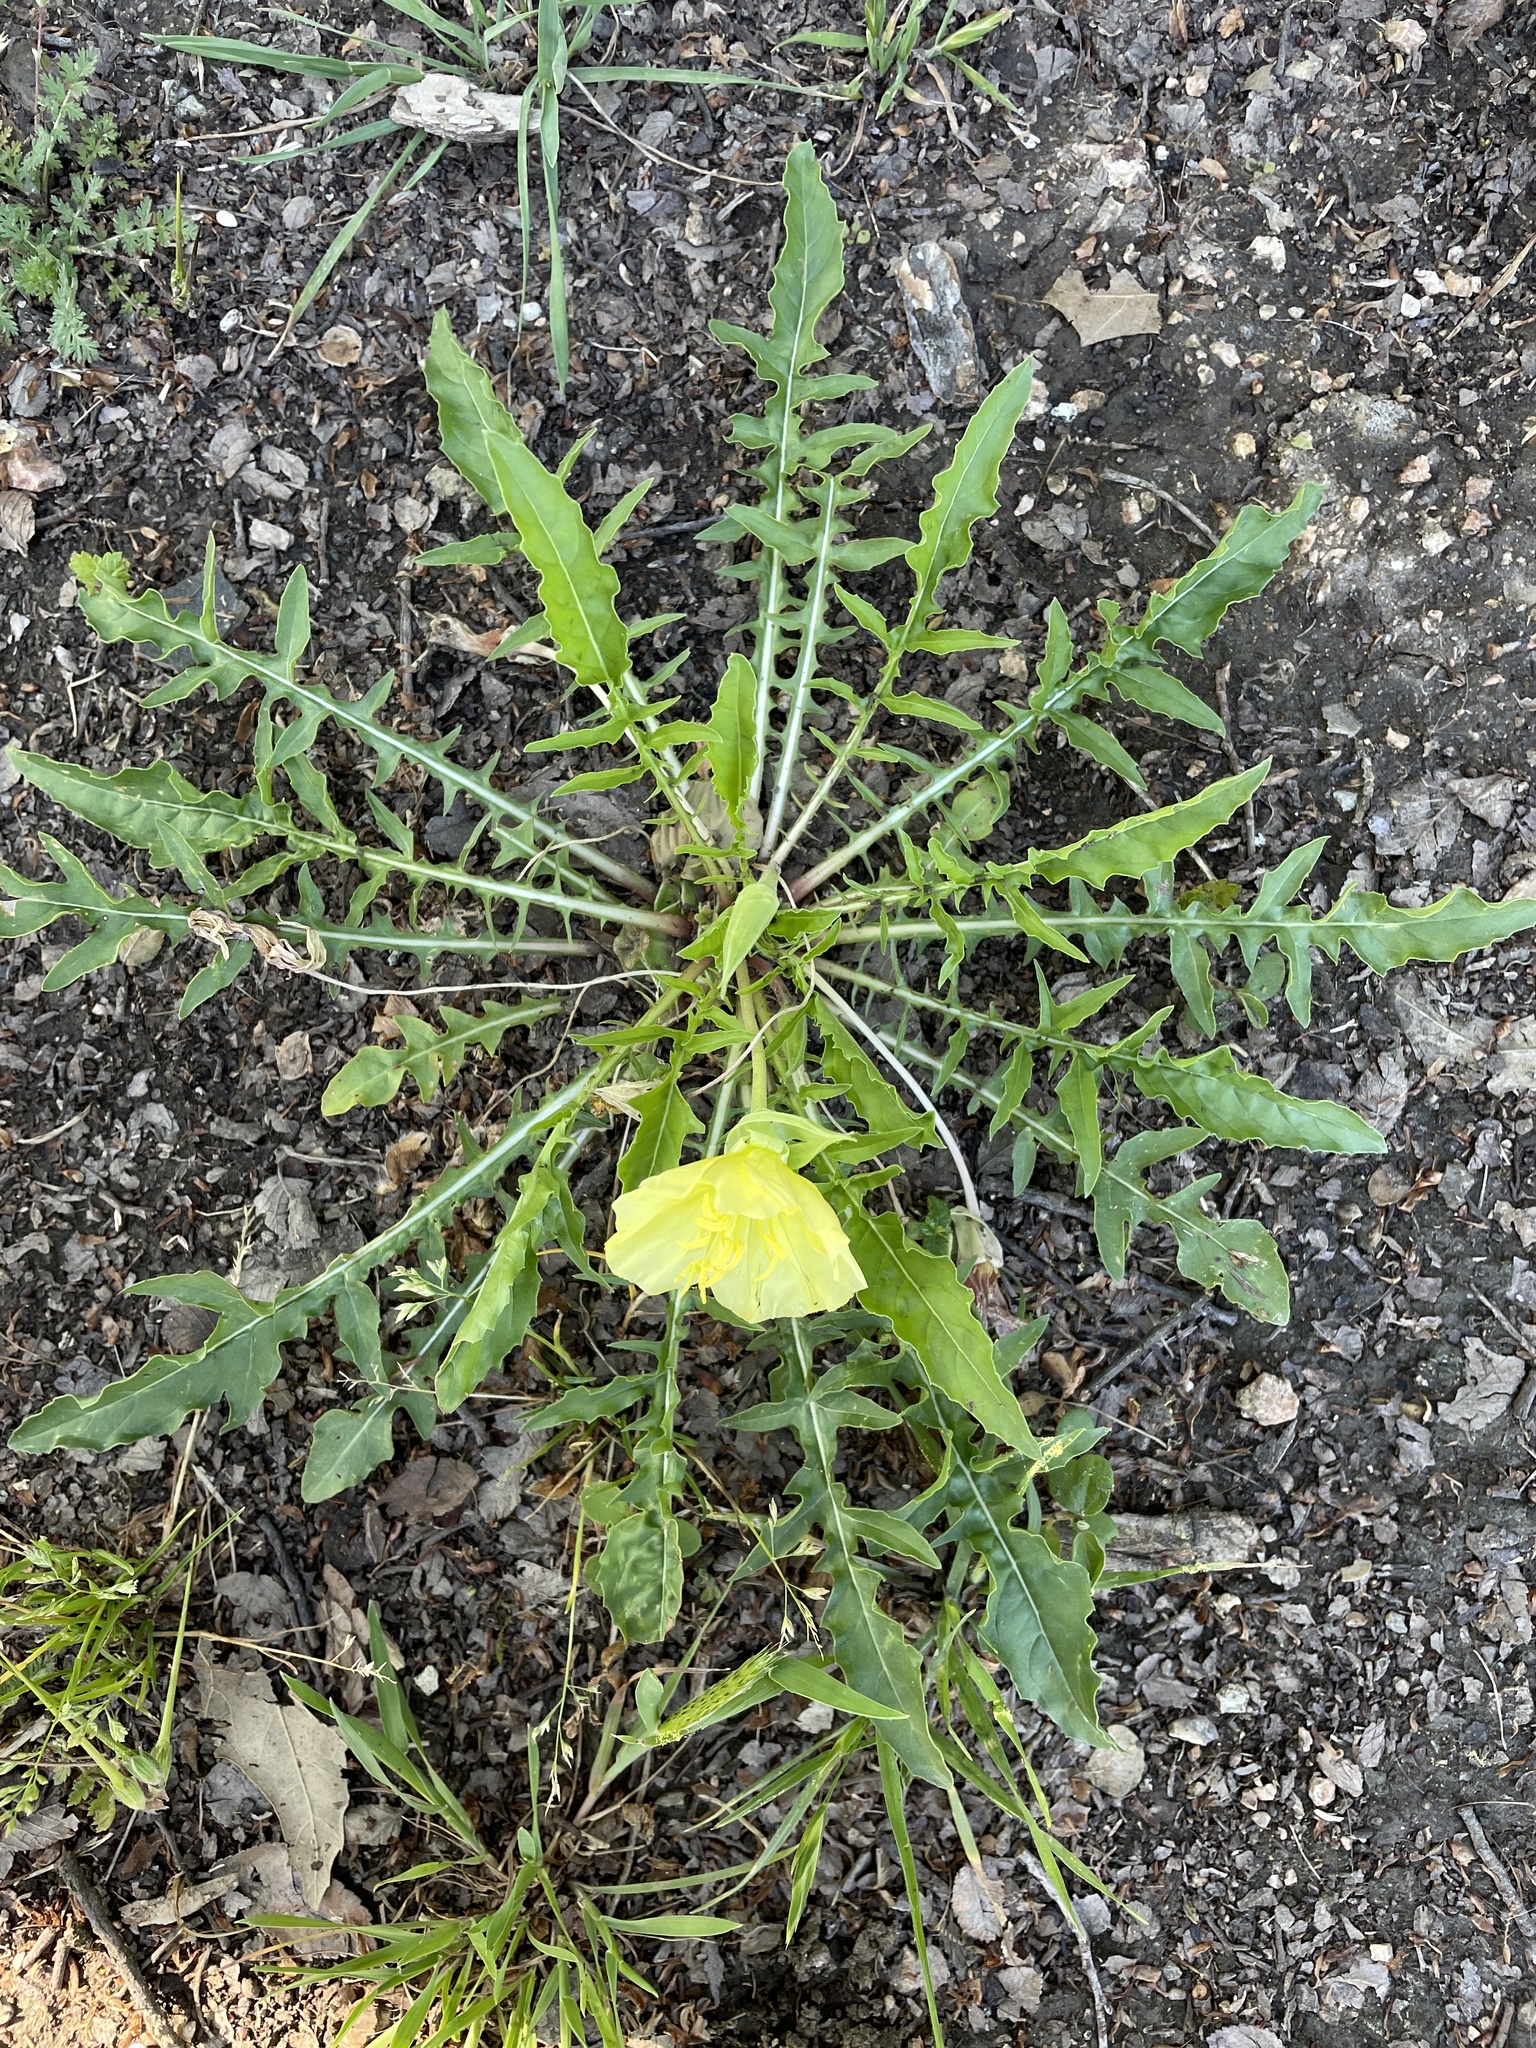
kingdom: Plantae
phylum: Tracheophyta
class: Magnoliopsida
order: Myrtales
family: Onagraceae
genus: Oenothera
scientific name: Oenothera triloba
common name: Sessile evening-primrose
